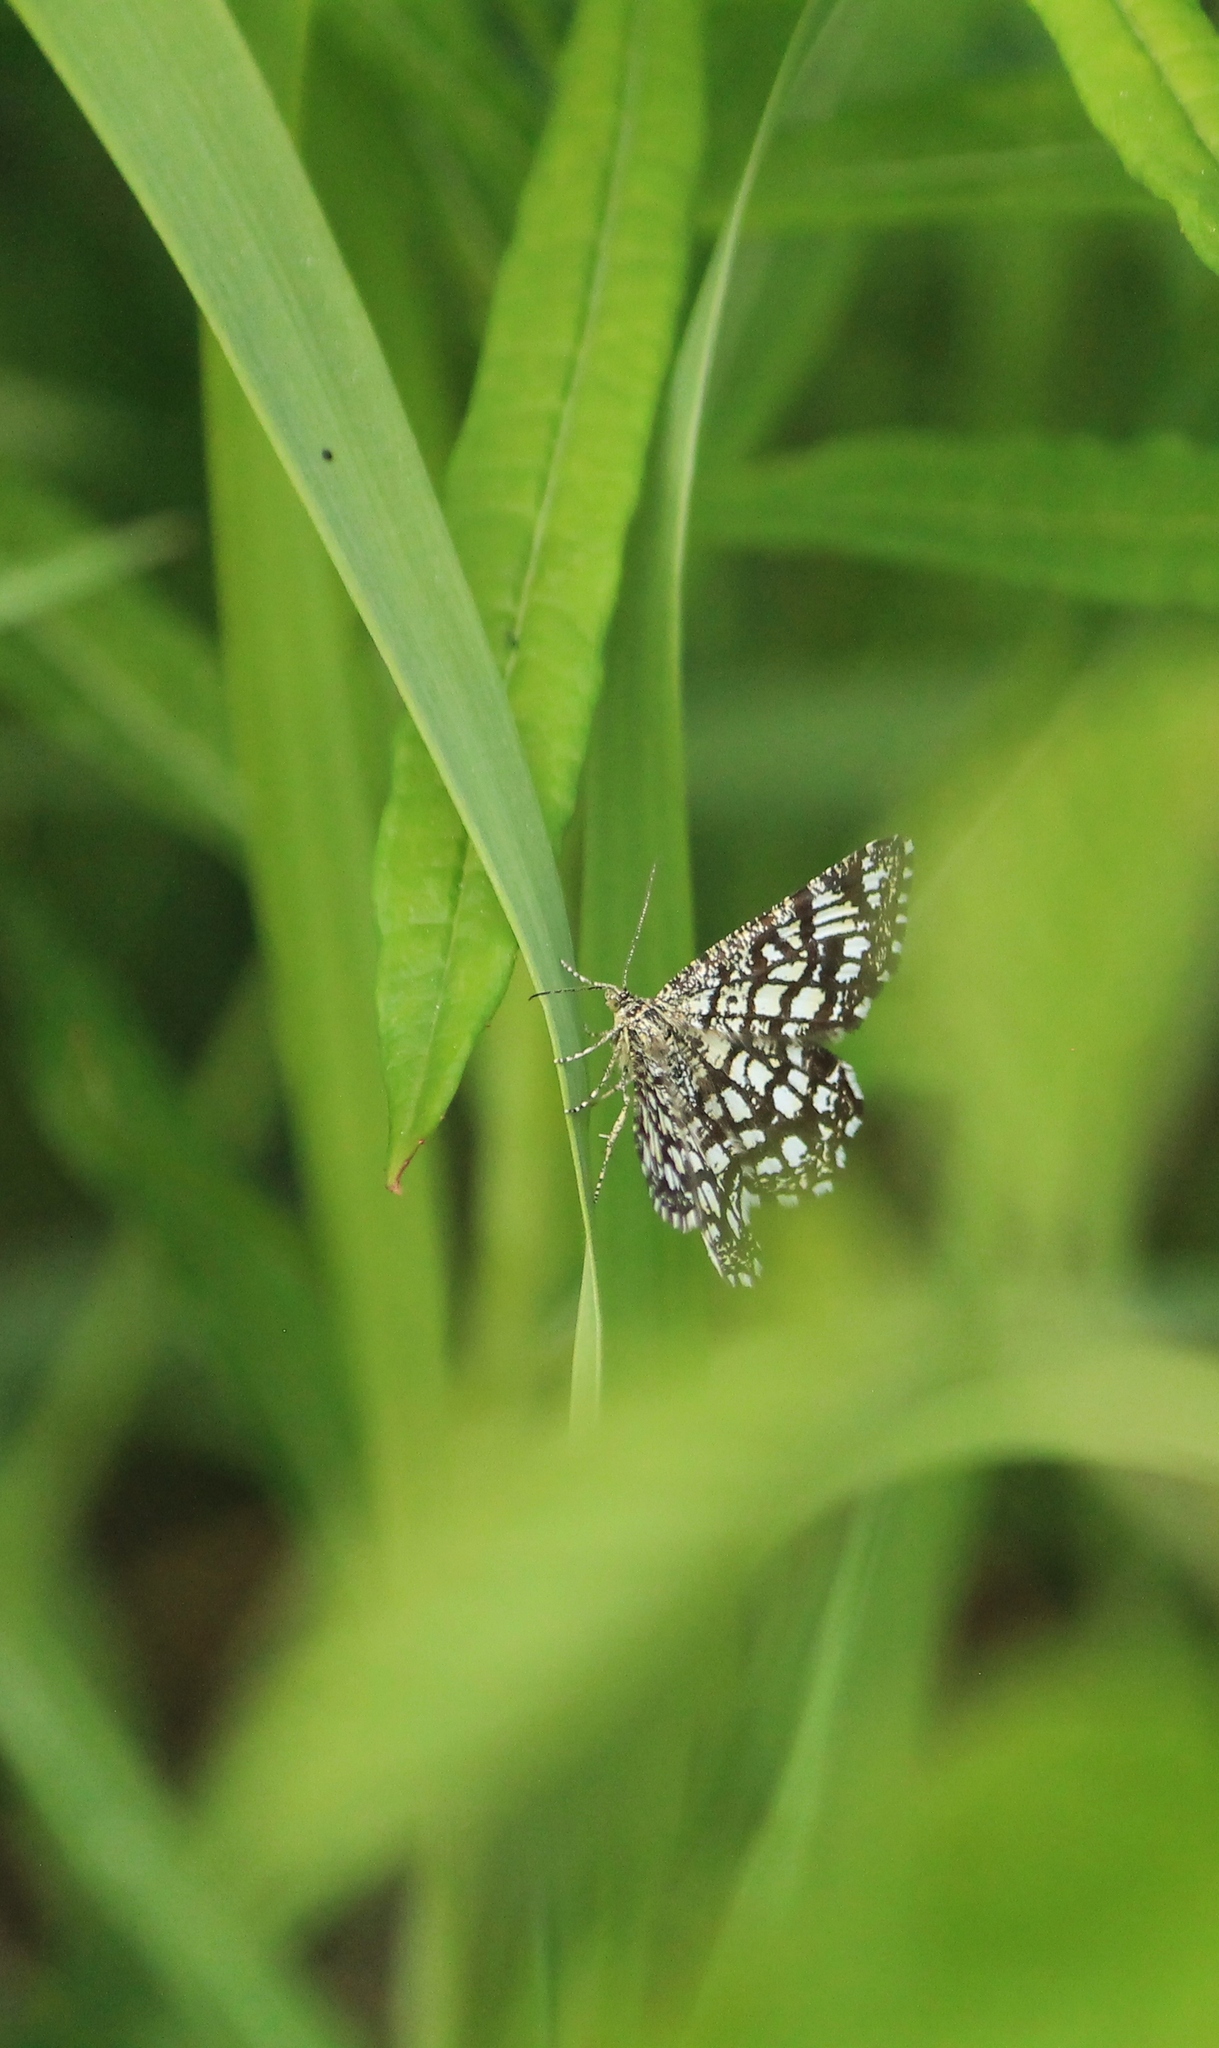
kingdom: Animalia
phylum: Arthropoda
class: Insecta
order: Lepidoptera
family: Geometridae
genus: Chiasmia
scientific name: Chiasmia clathrata
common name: Latticed heath
